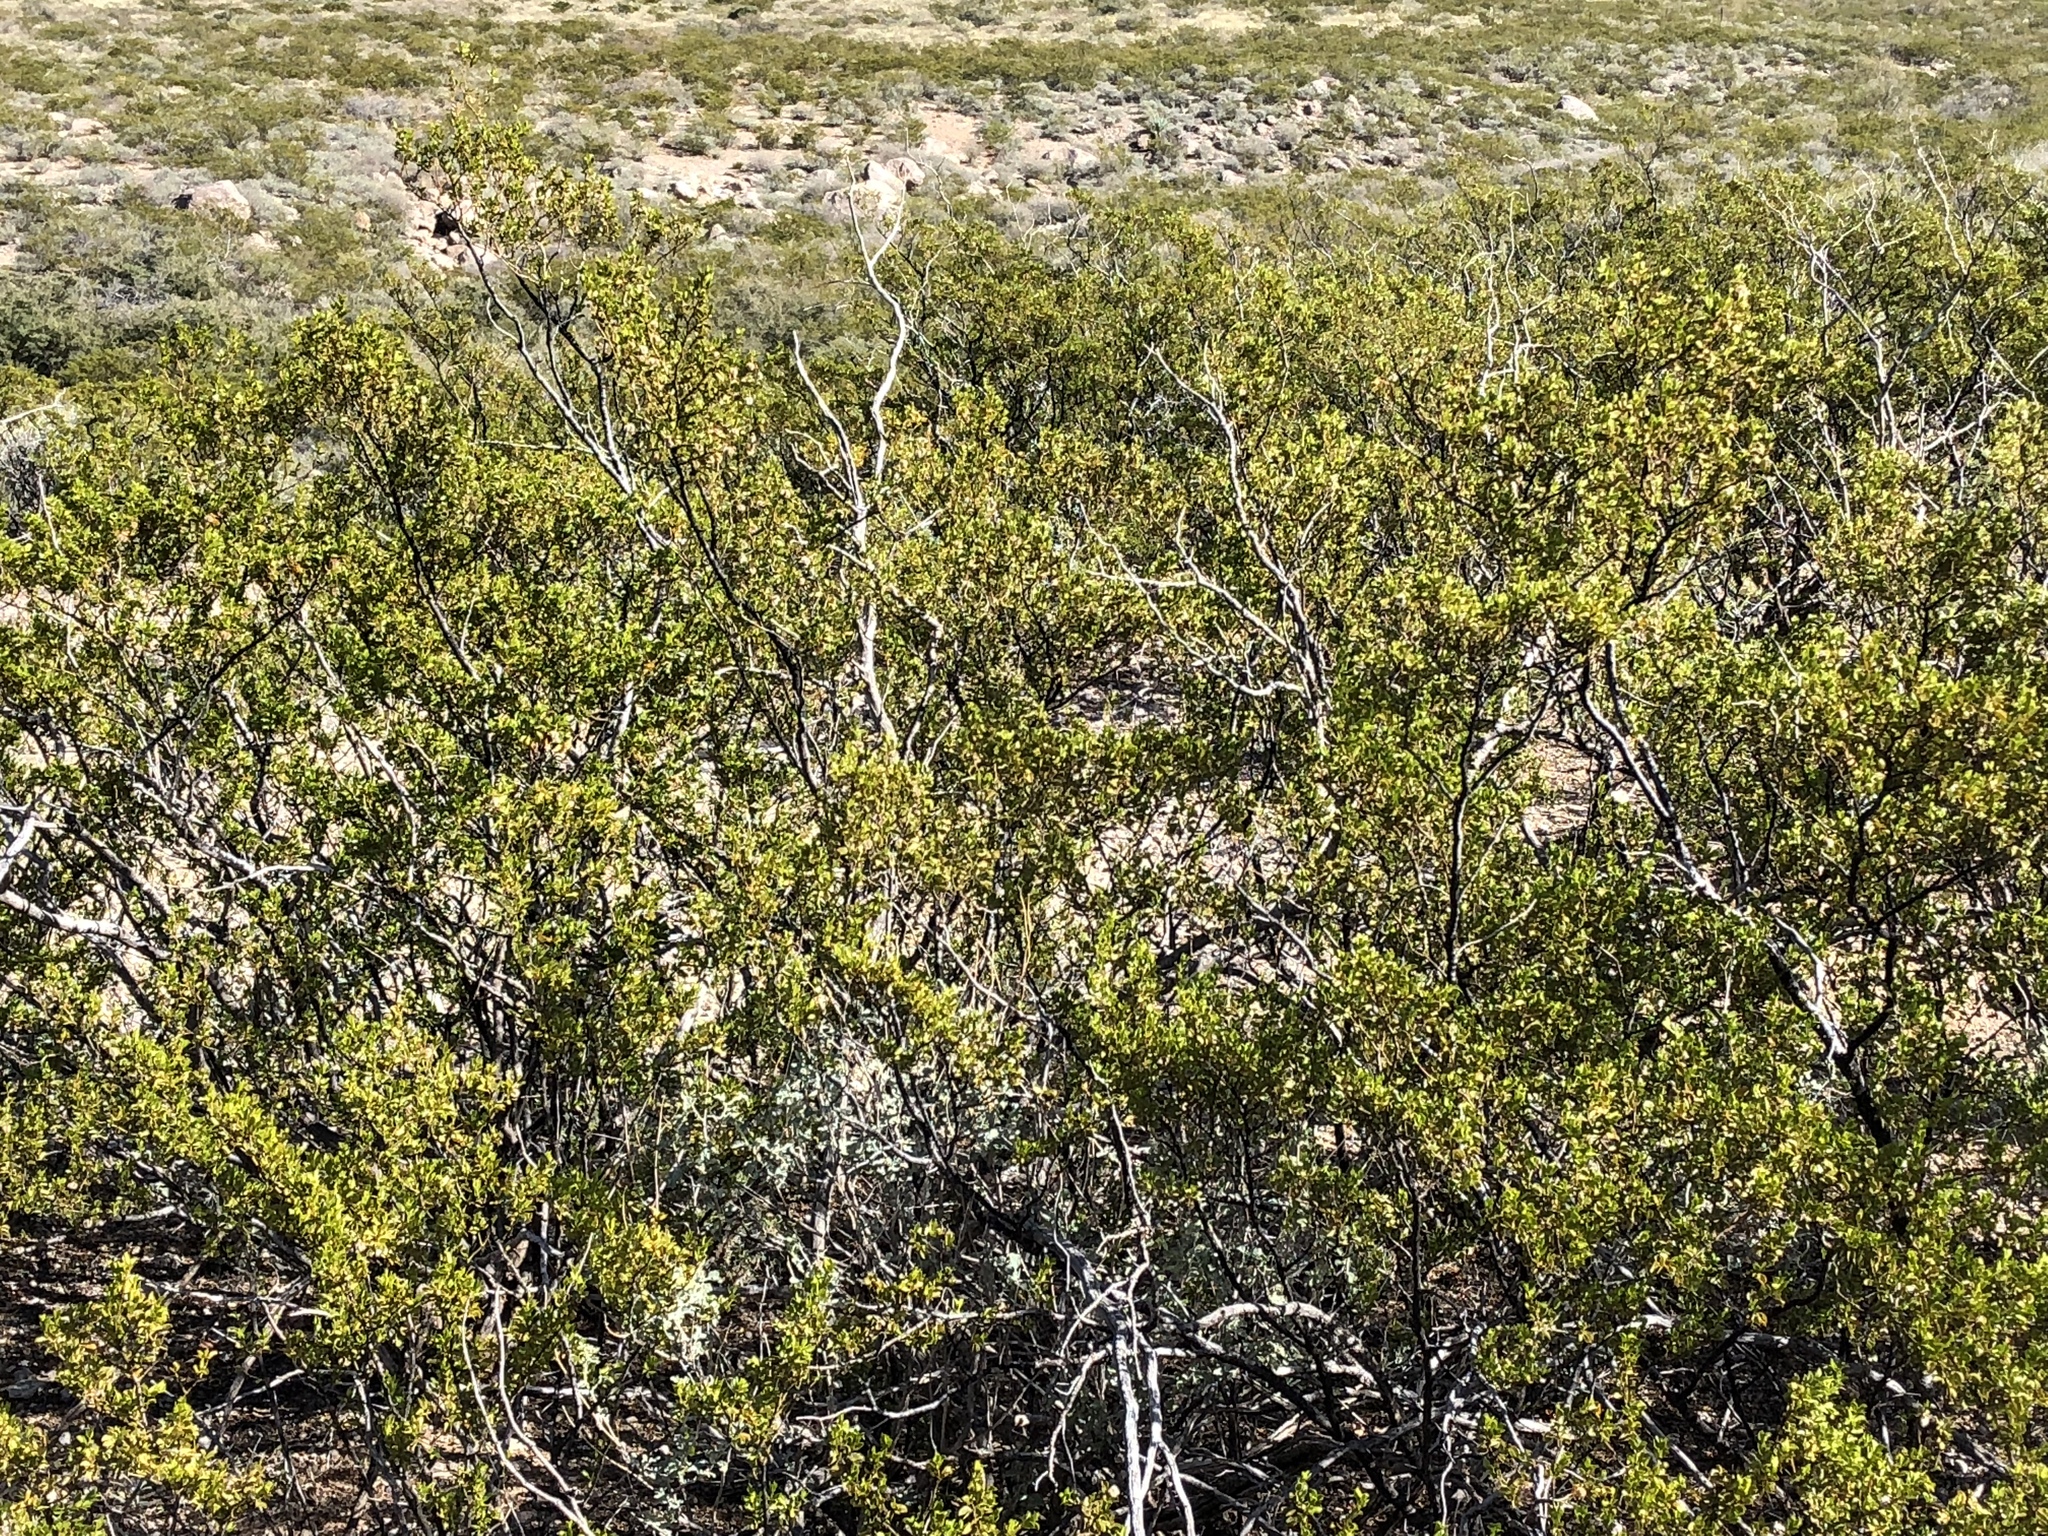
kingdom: Plantae
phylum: Tracheophyta
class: Magnoliopsida
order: Zygophyllales
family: Zygophyllaceae
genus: Larrea
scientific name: Larrea tridentata
